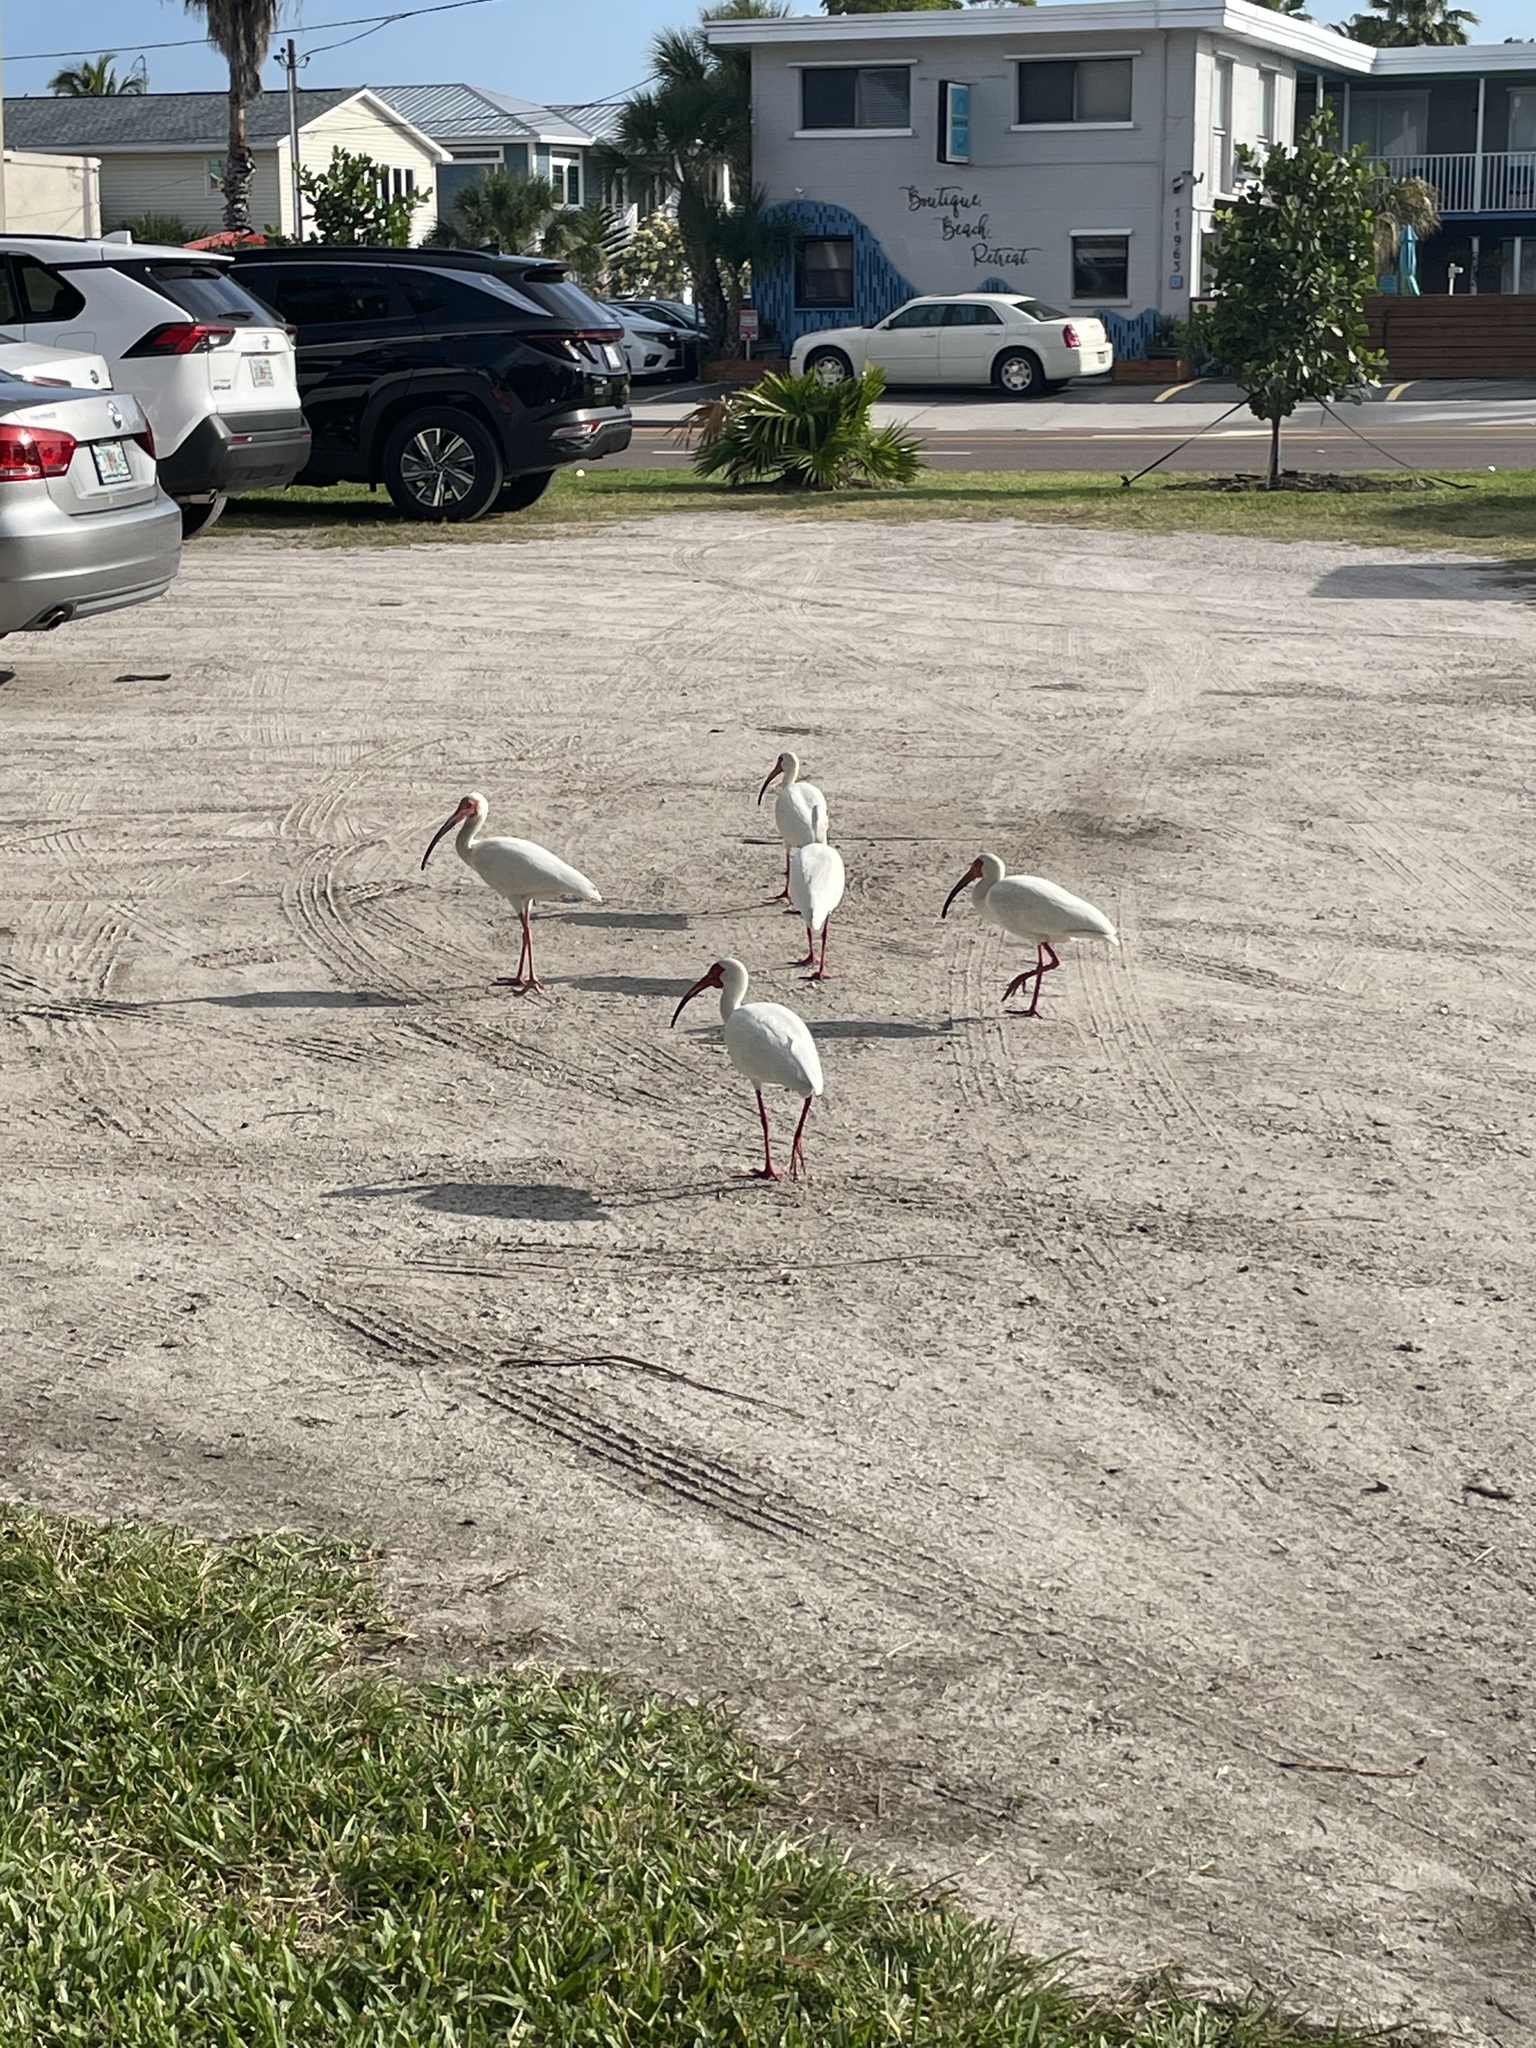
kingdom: Animalia
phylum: Chordata
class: Aves
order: Pelecaniformes
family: Threskiornithidae
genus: Eudocimus
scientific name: Eudocimus albus
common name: White ibis
